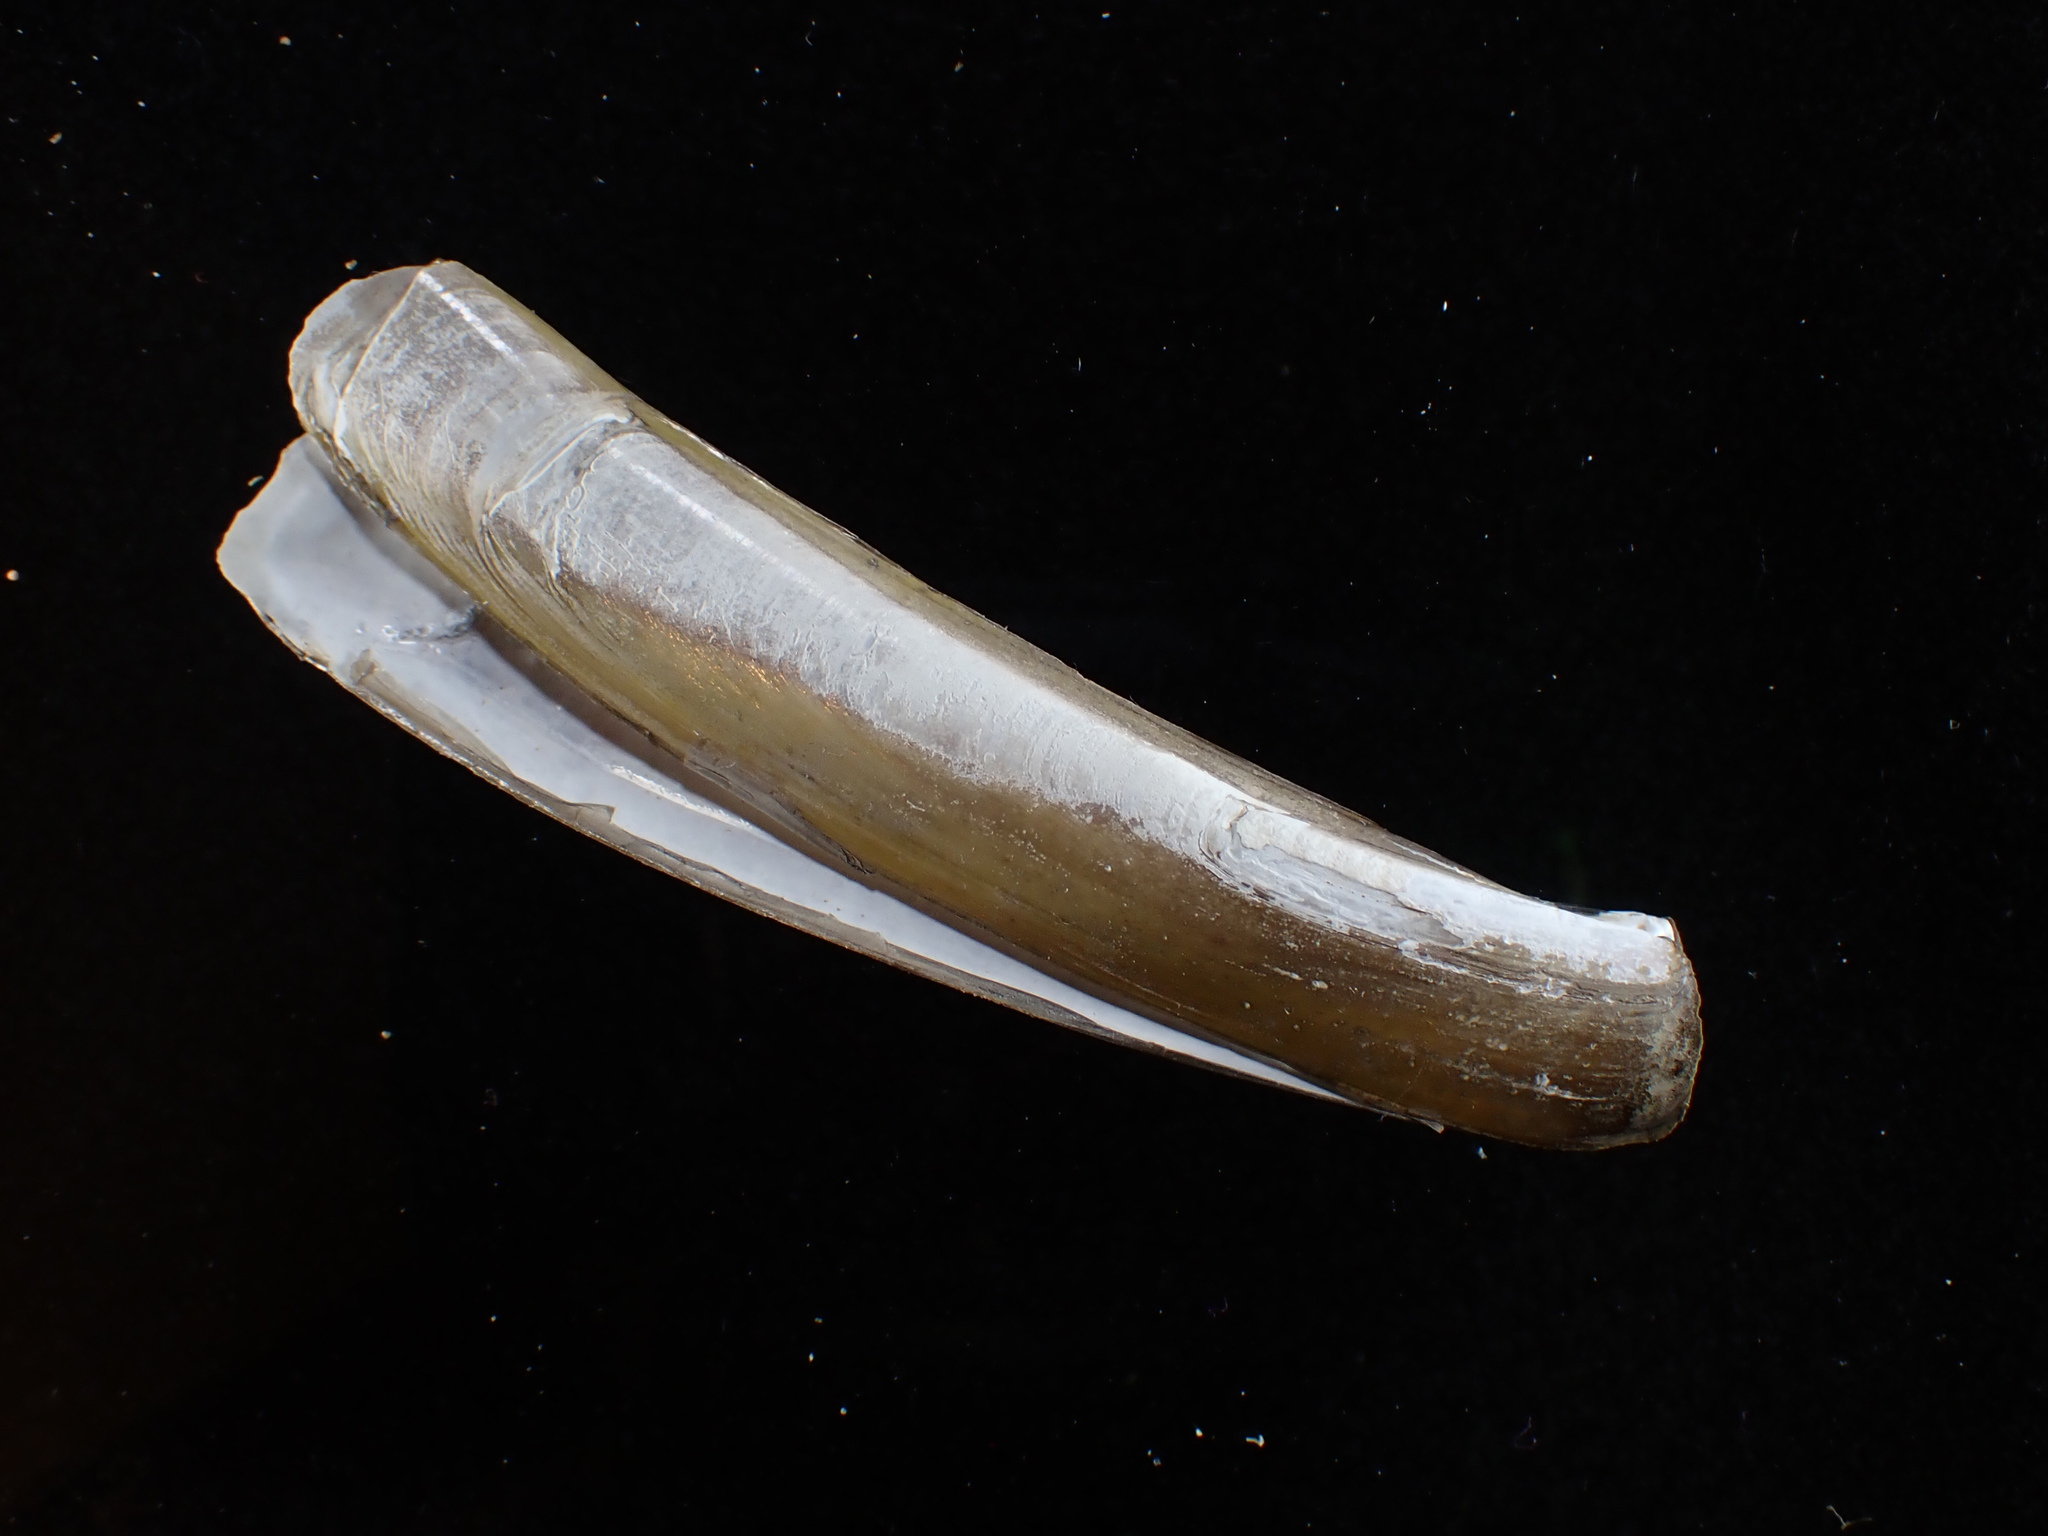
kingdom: Animalia
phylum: Mollusca
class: Bivalvia
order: Adapedonta
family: Pharidae
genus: Ensis
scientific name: Ensis leei
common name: American jack knife clam
